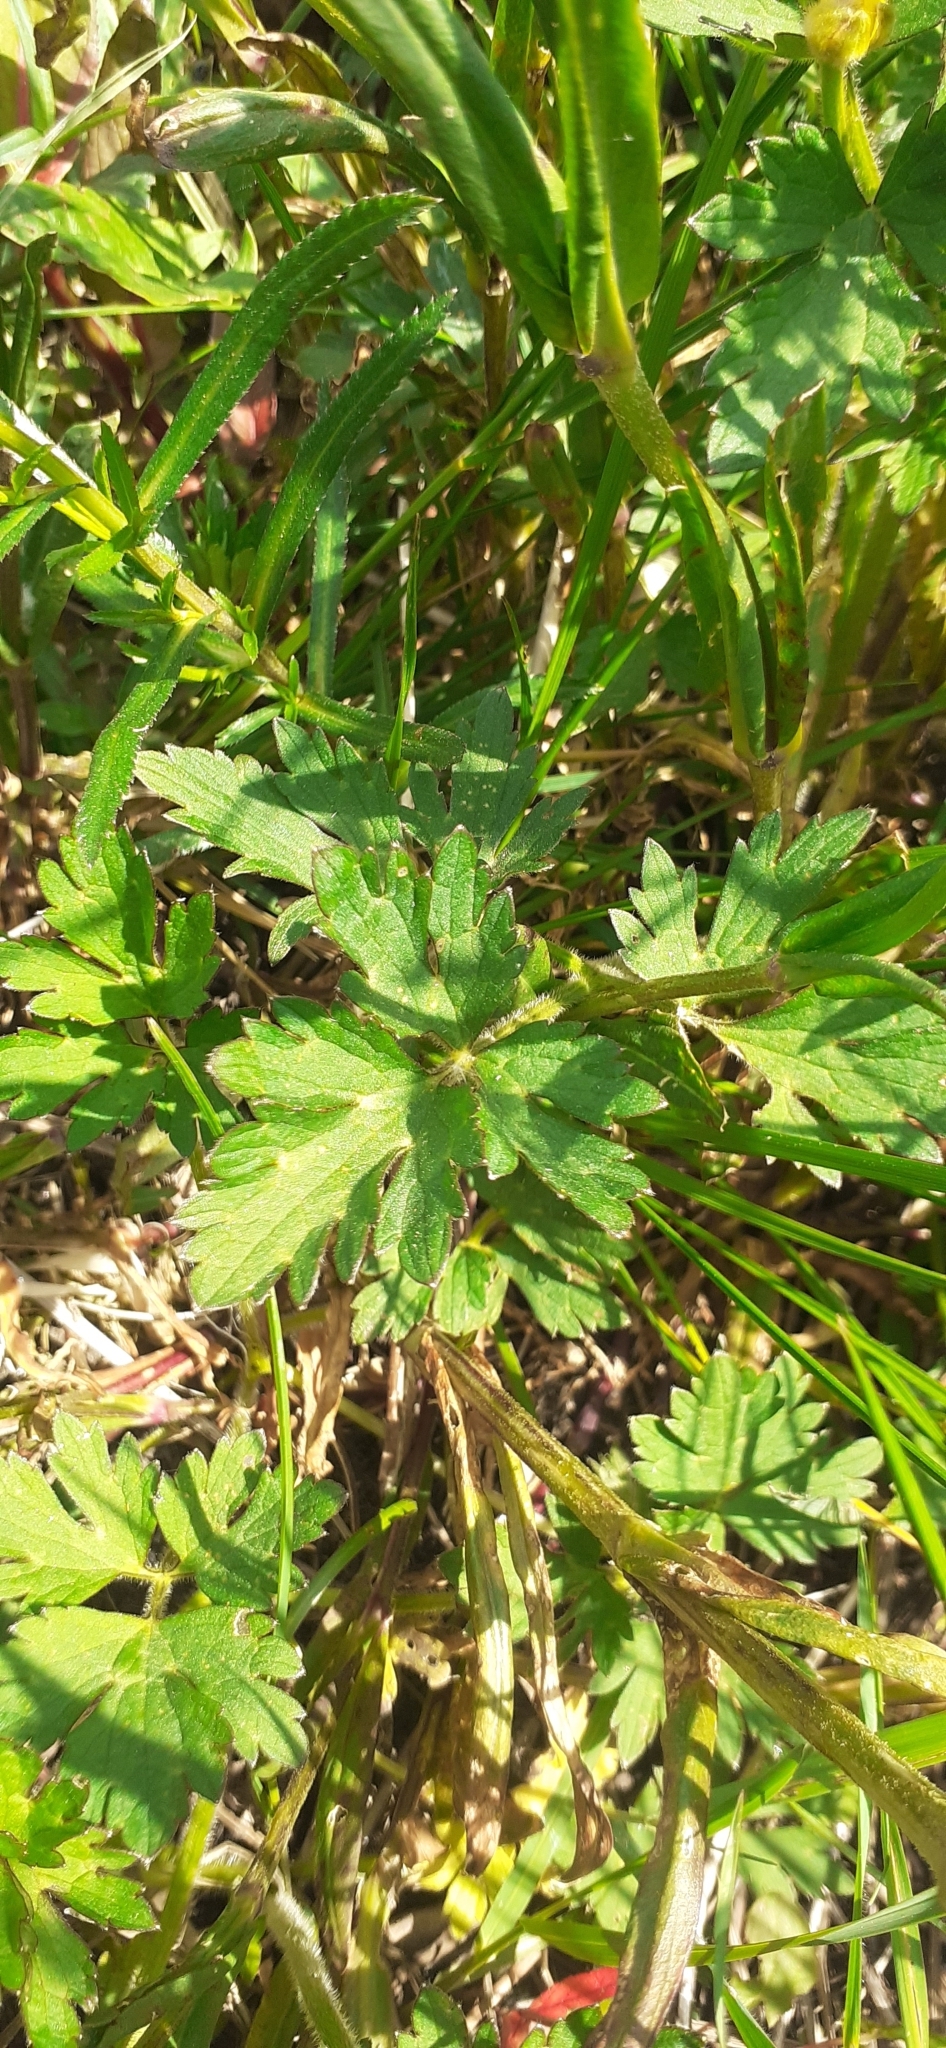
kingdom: Plantae
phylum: Tracheophyta
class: Magnoliopsida
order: Caryophyllales
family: Caryophyllaceae
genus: Silene
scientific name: Silene flos-cuculi
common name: Ragged-robin
